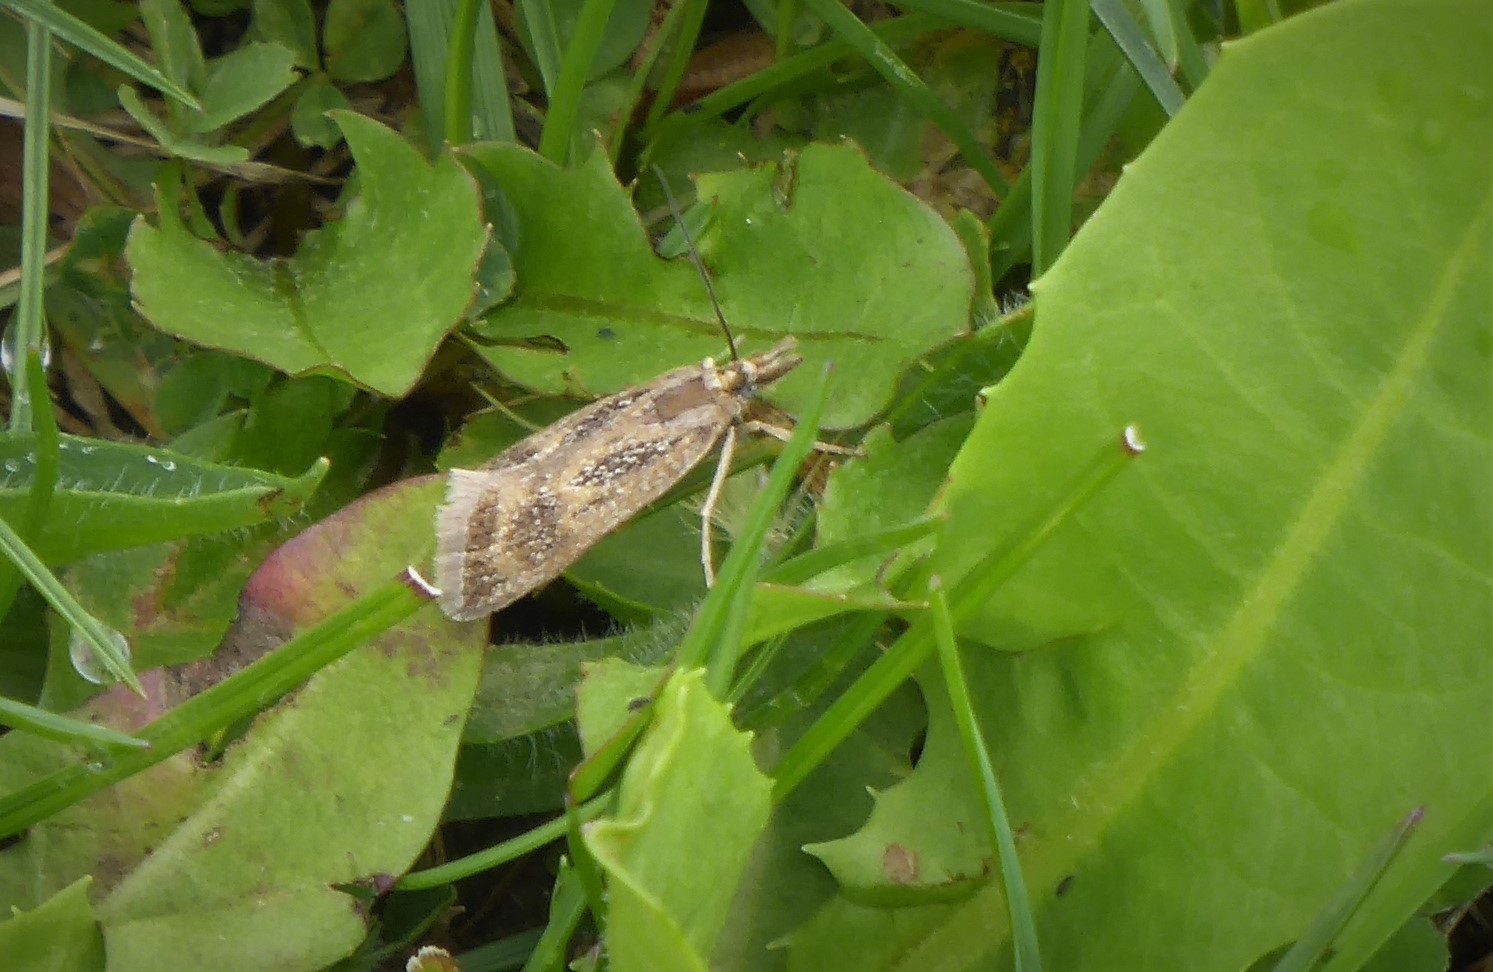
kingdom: Animalia
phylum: Arthropoda
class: Insecta
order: Lepidoptera
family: Crambidae
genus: Orocrambus
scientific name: Orocrambus corruptus
